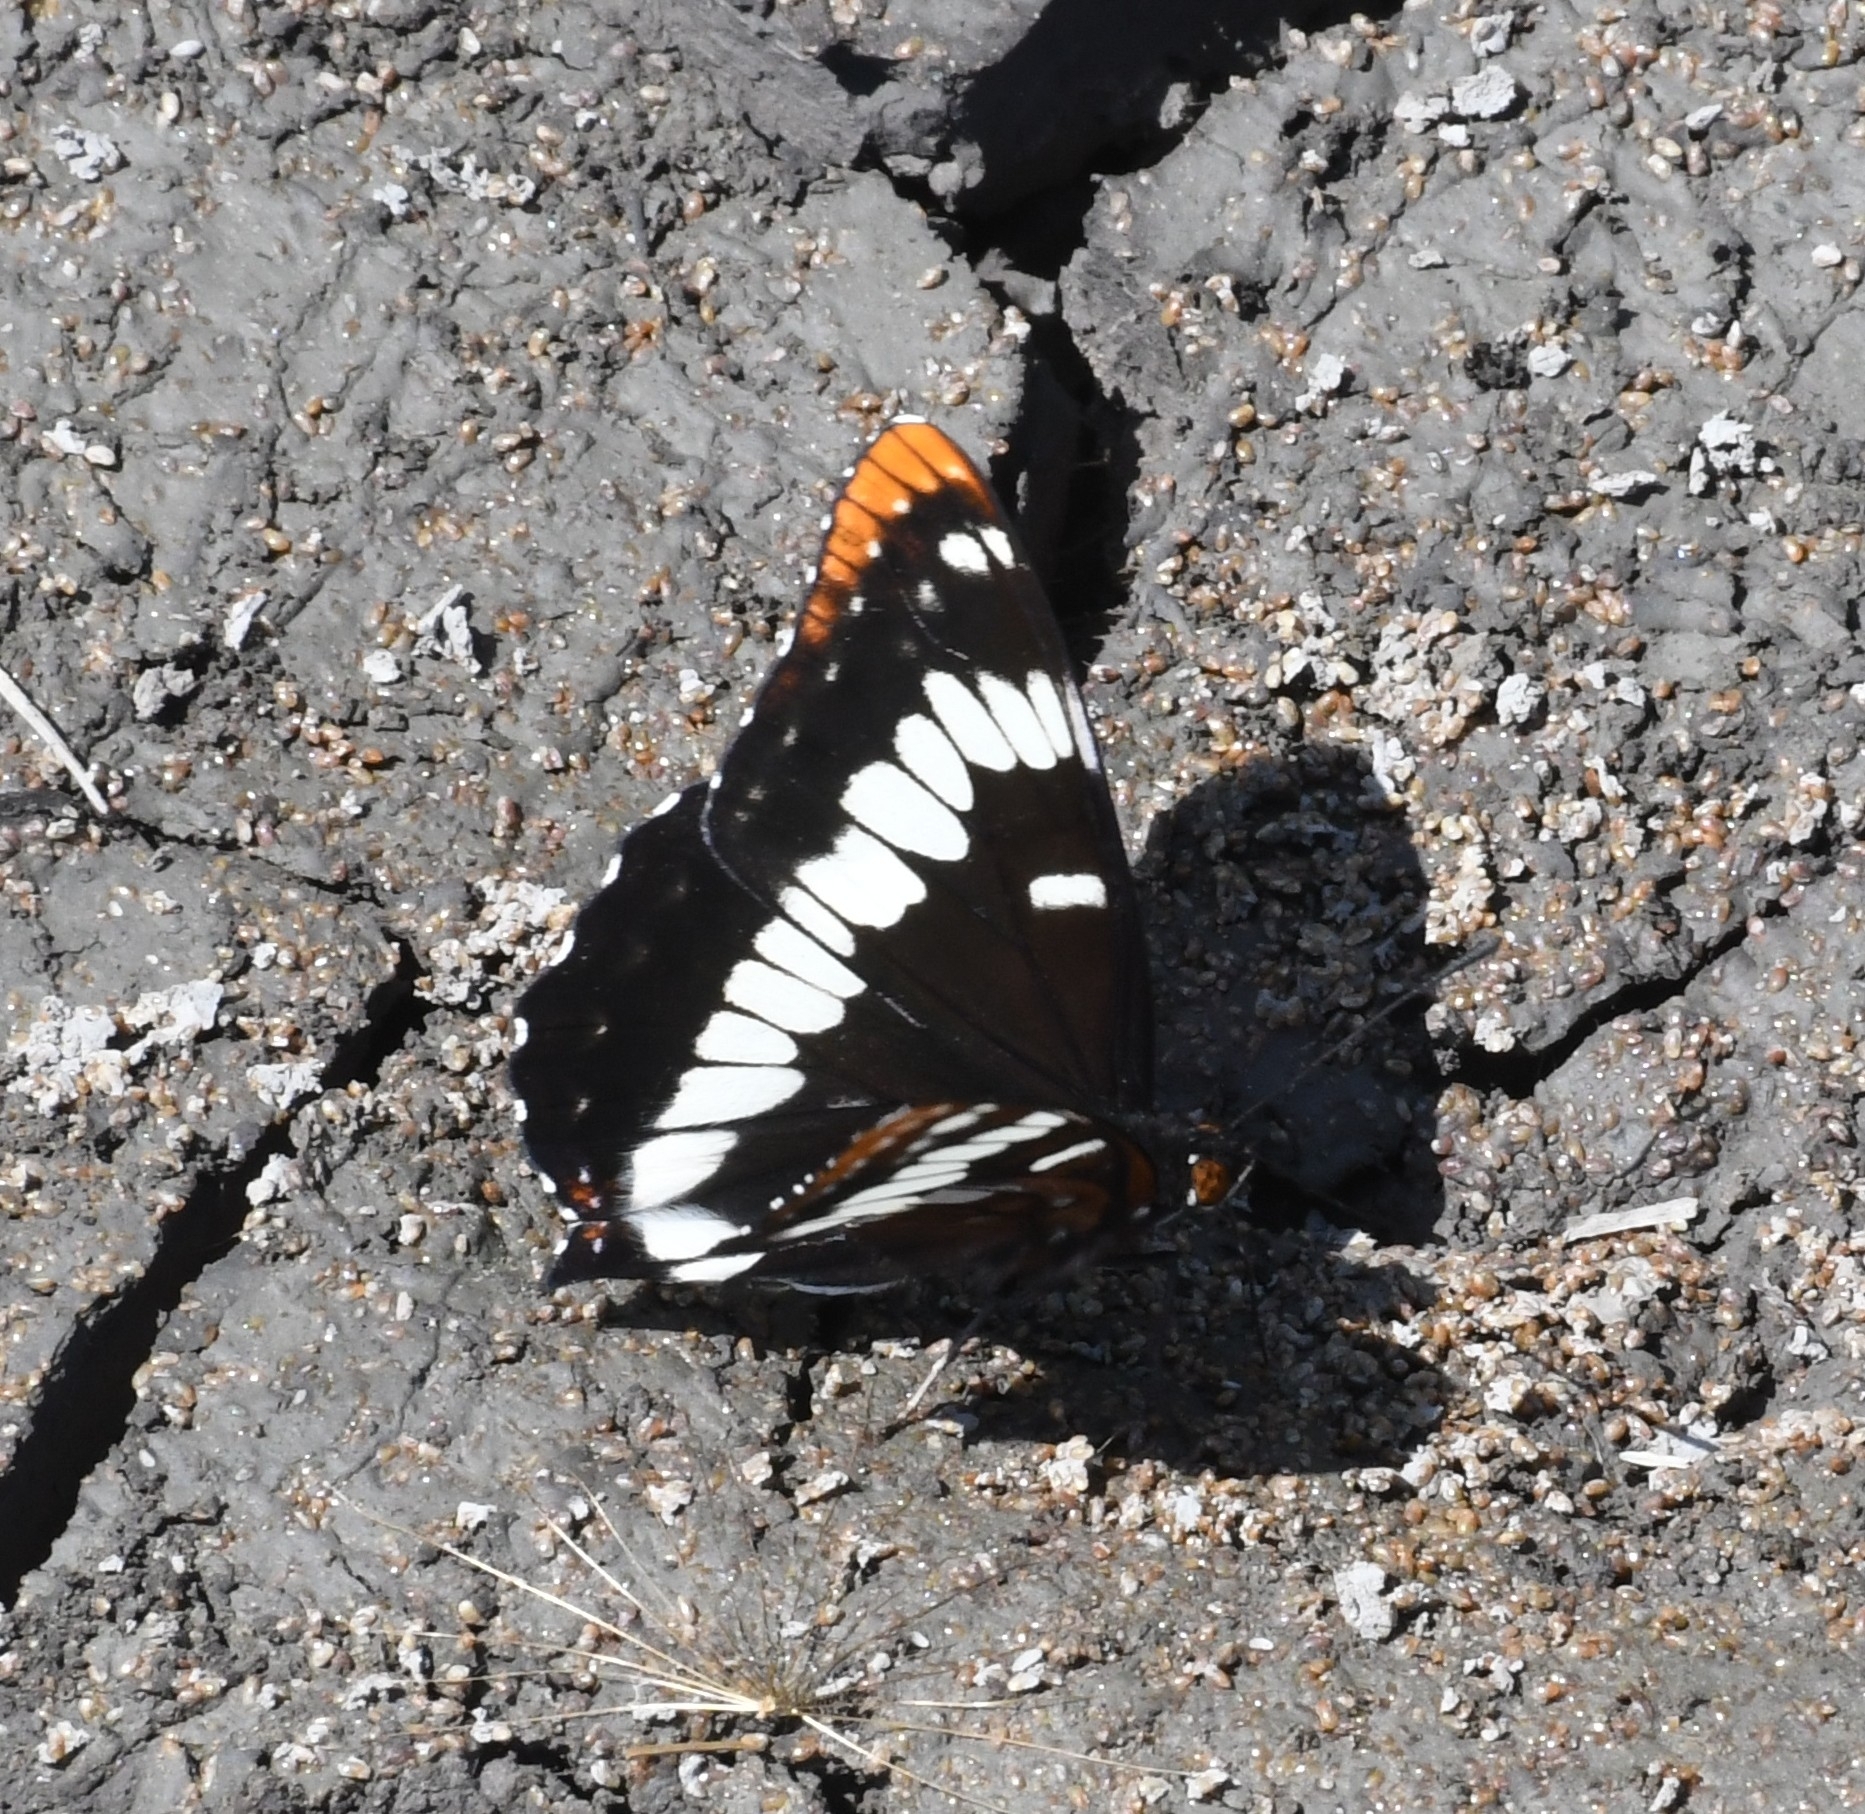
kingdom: Animalia
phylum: Arthropoda
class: Insecta
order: Lepidoptera
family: Nymphalidae
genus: Limenitis
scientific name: Limenitis lorquini
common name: Lorquin's admiral
